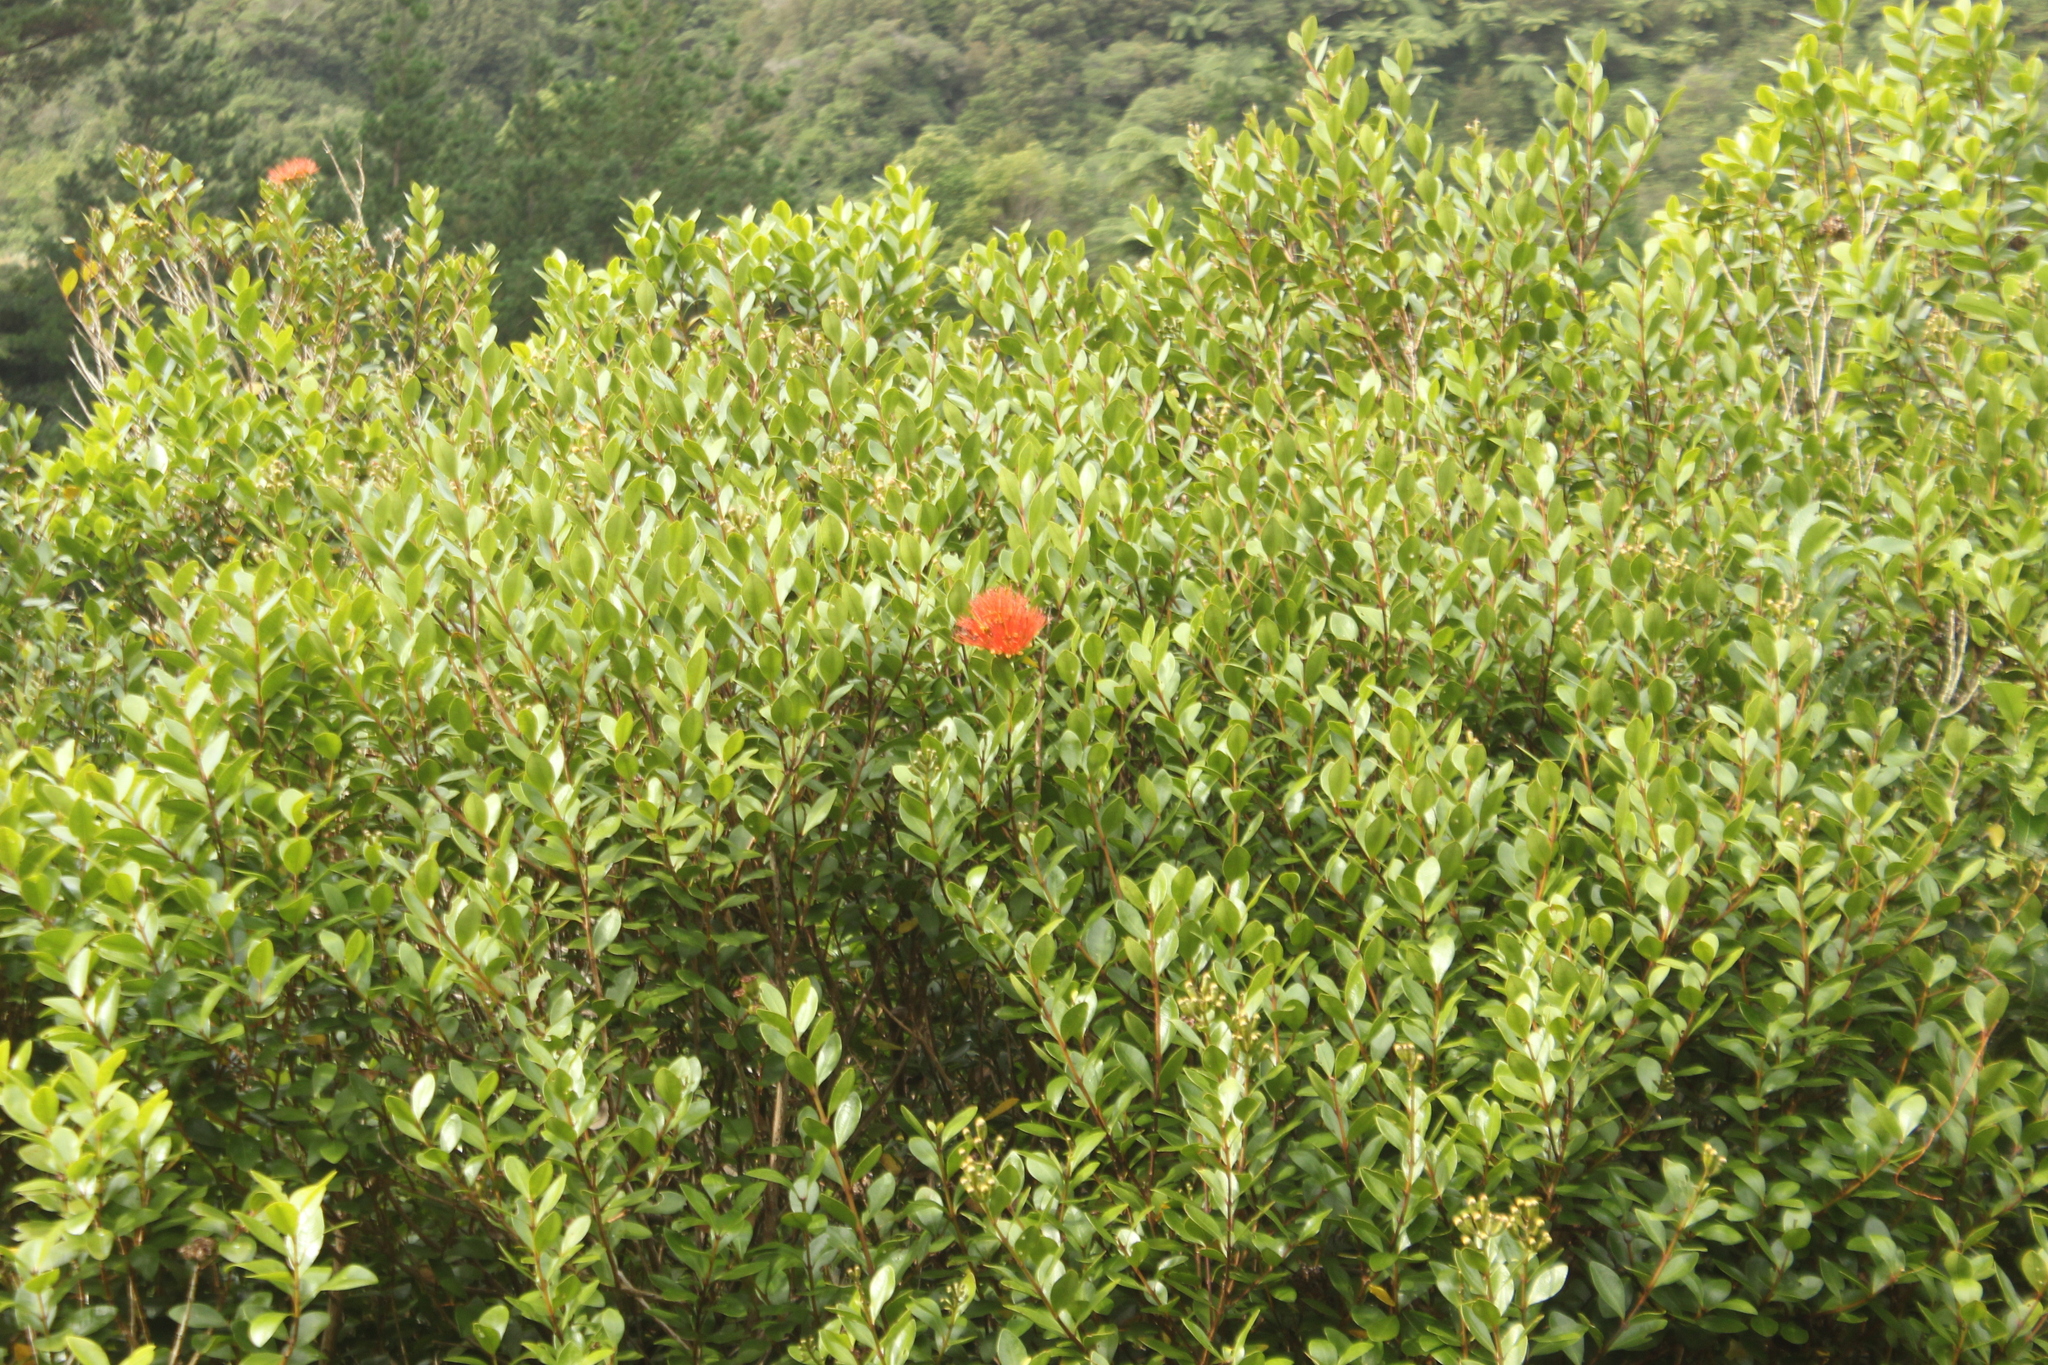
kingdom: Plantae
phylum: Tracheophyta
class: Magnoliopsida
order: Myrtales
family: Myrtaceae
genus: Metrosideros
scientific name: Metrosideros fulgens
